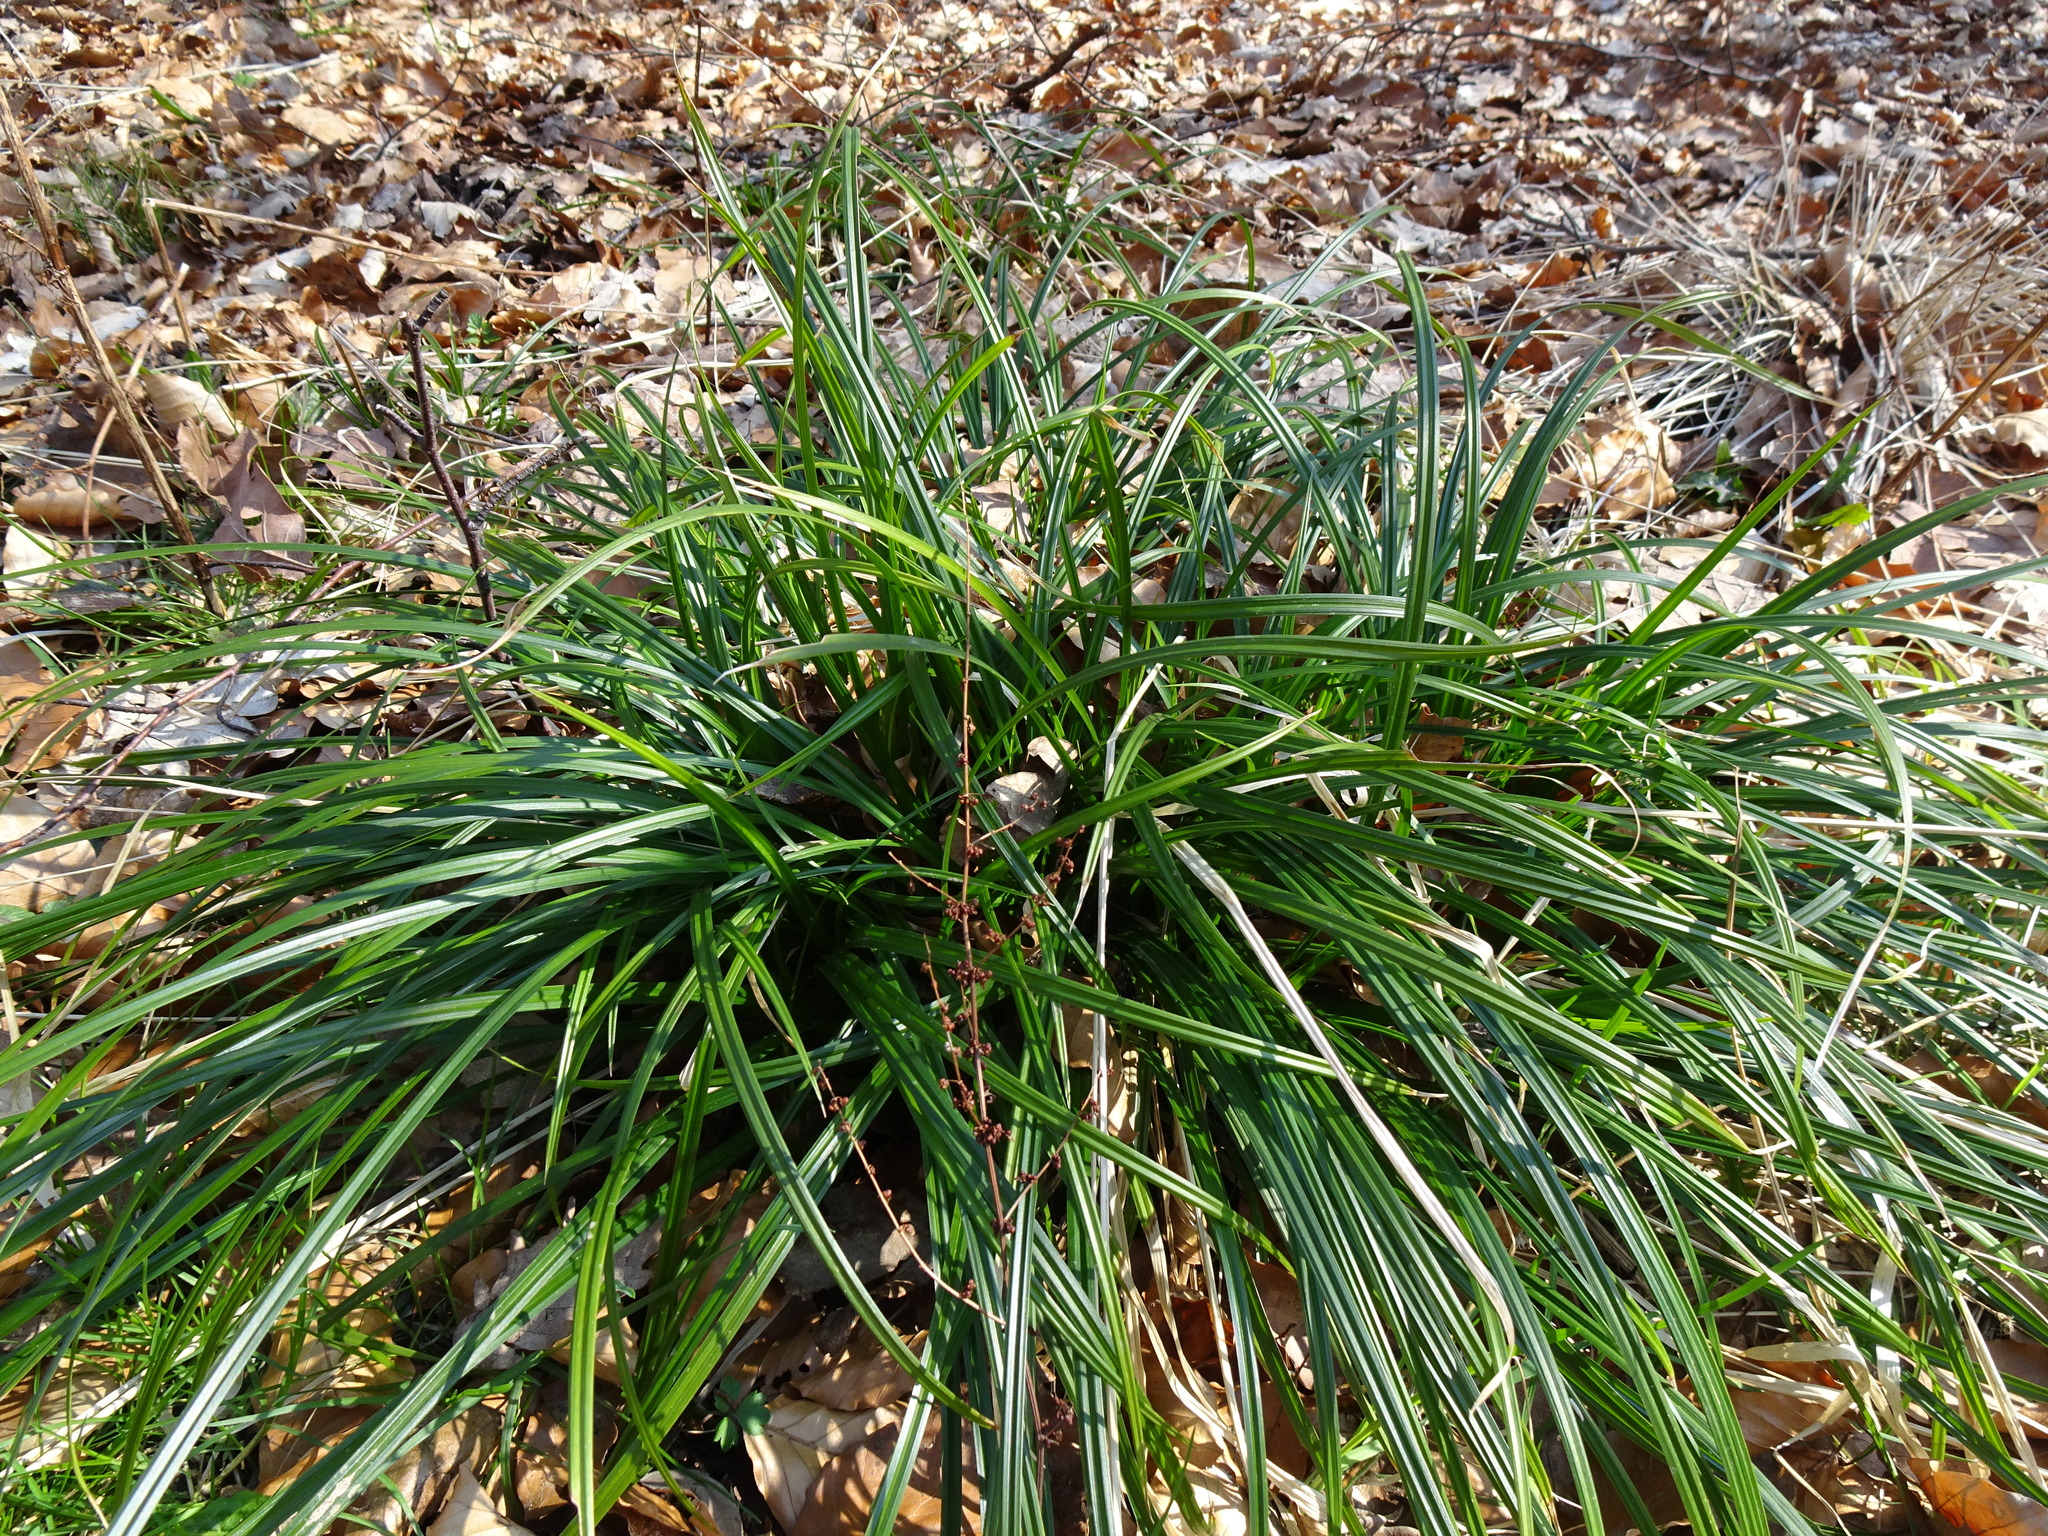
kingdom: Plantae
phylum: Tracheophyta
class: Liliopsida
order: Poales
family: Cyperaceae
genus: Carex
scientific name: Carex sylvatica
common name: Wood-sedge
